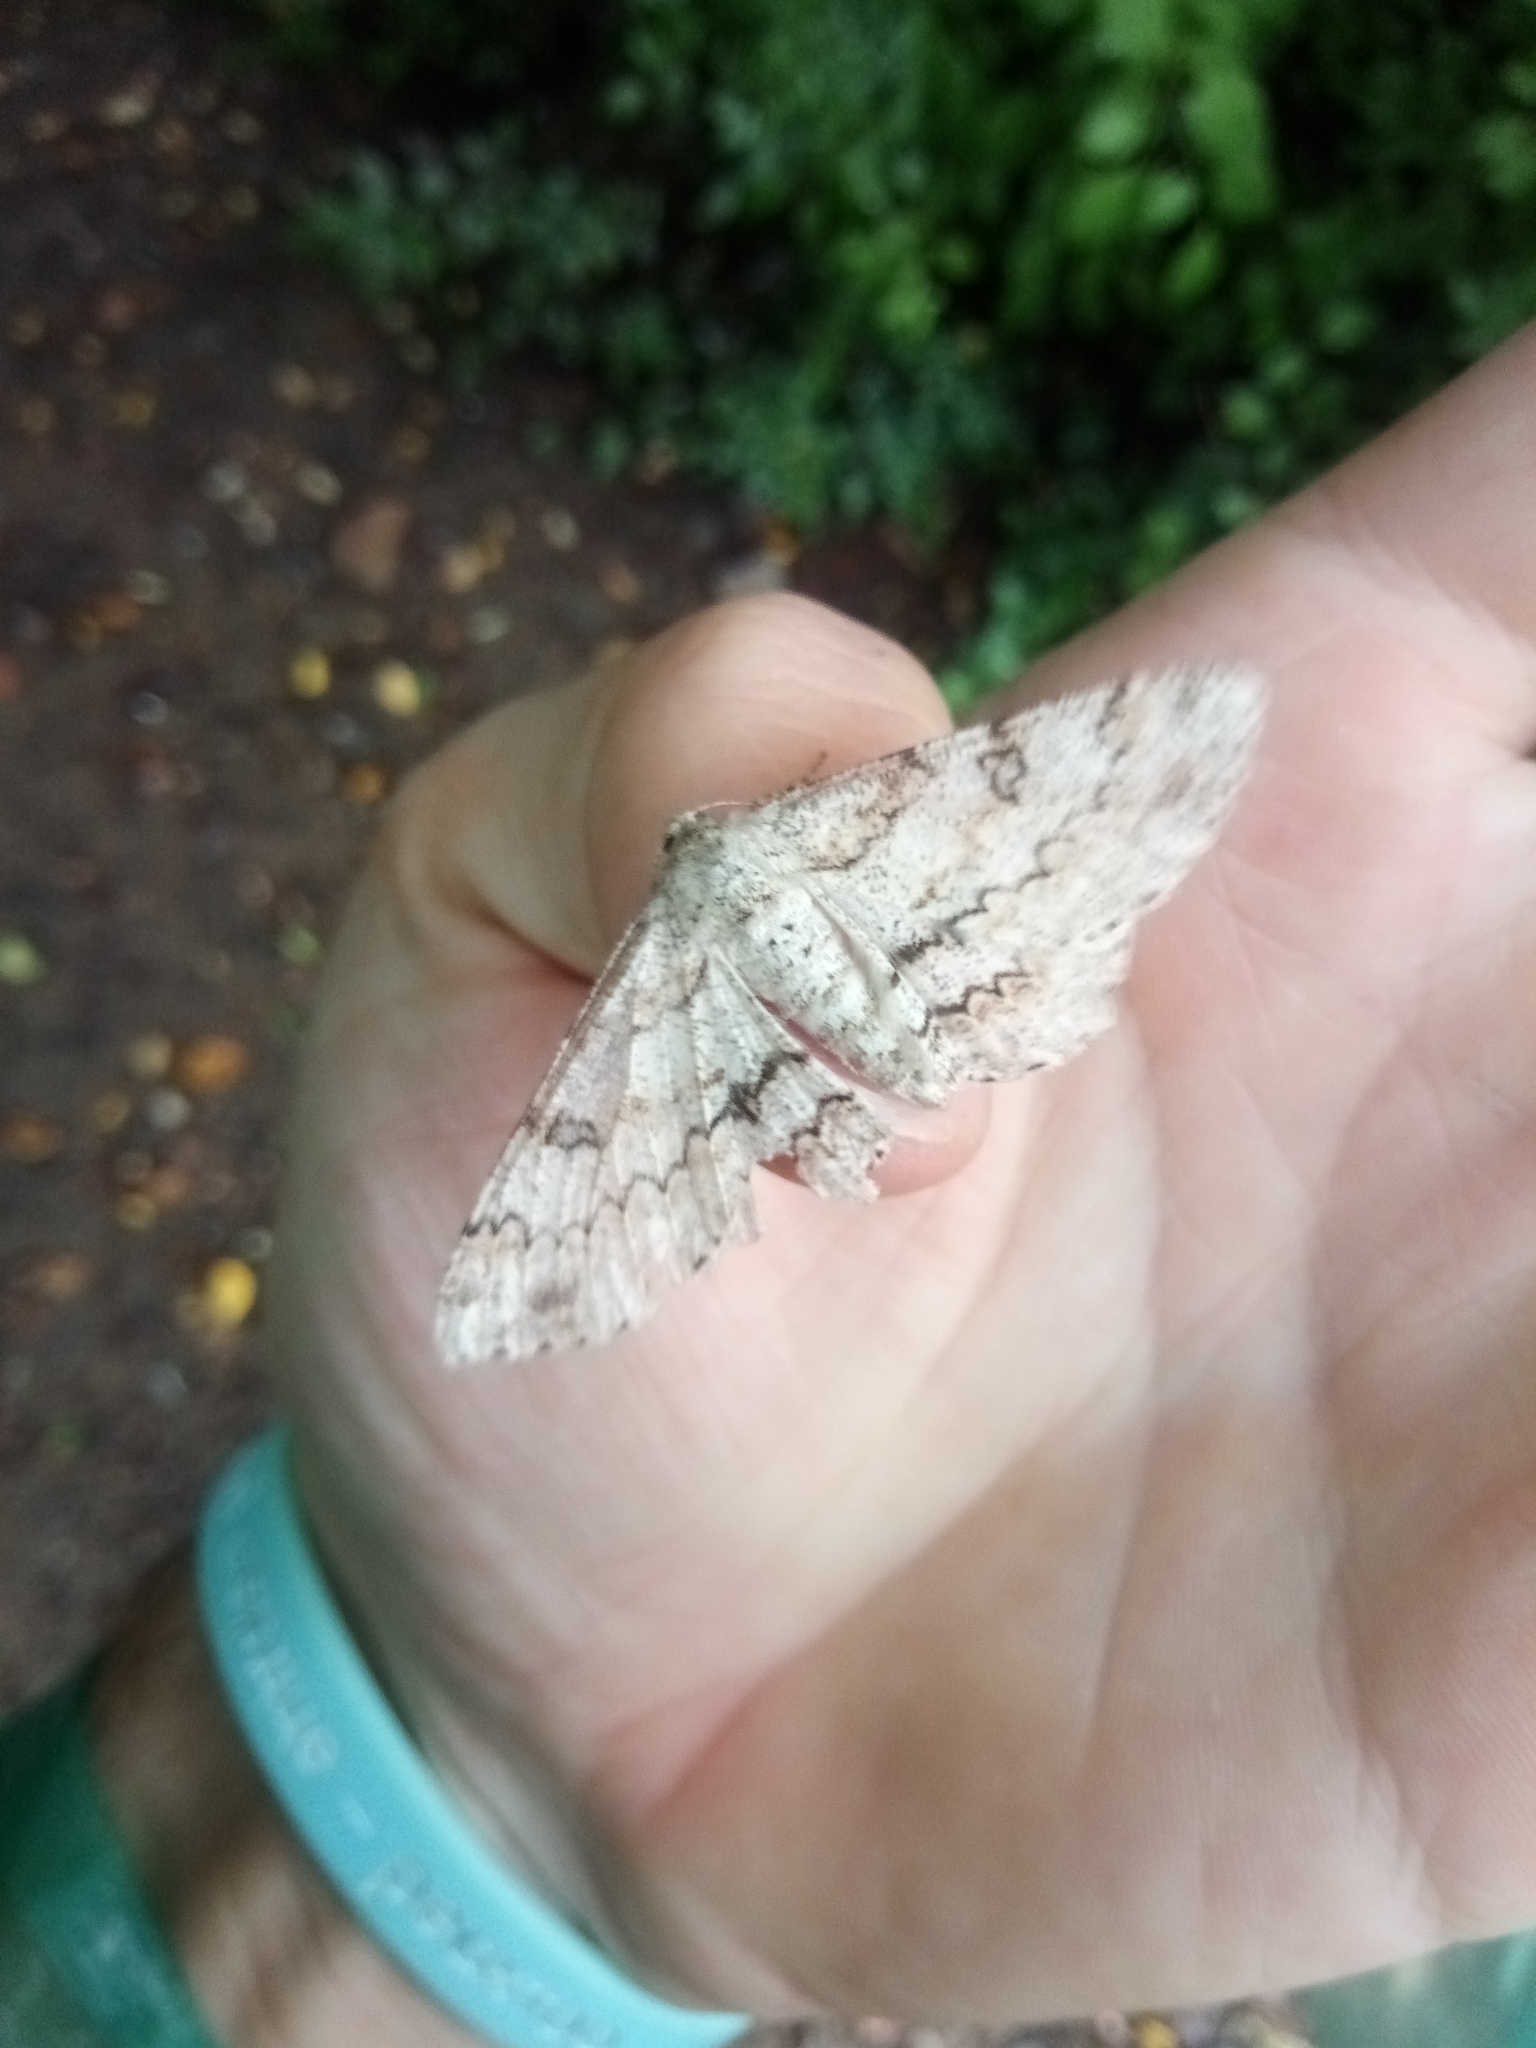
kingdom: Animalia
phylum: Arthropoda
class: Insecta
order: Lepidoptera
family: Geometridae
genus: Ascotis
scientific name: Ascotis selenaria
